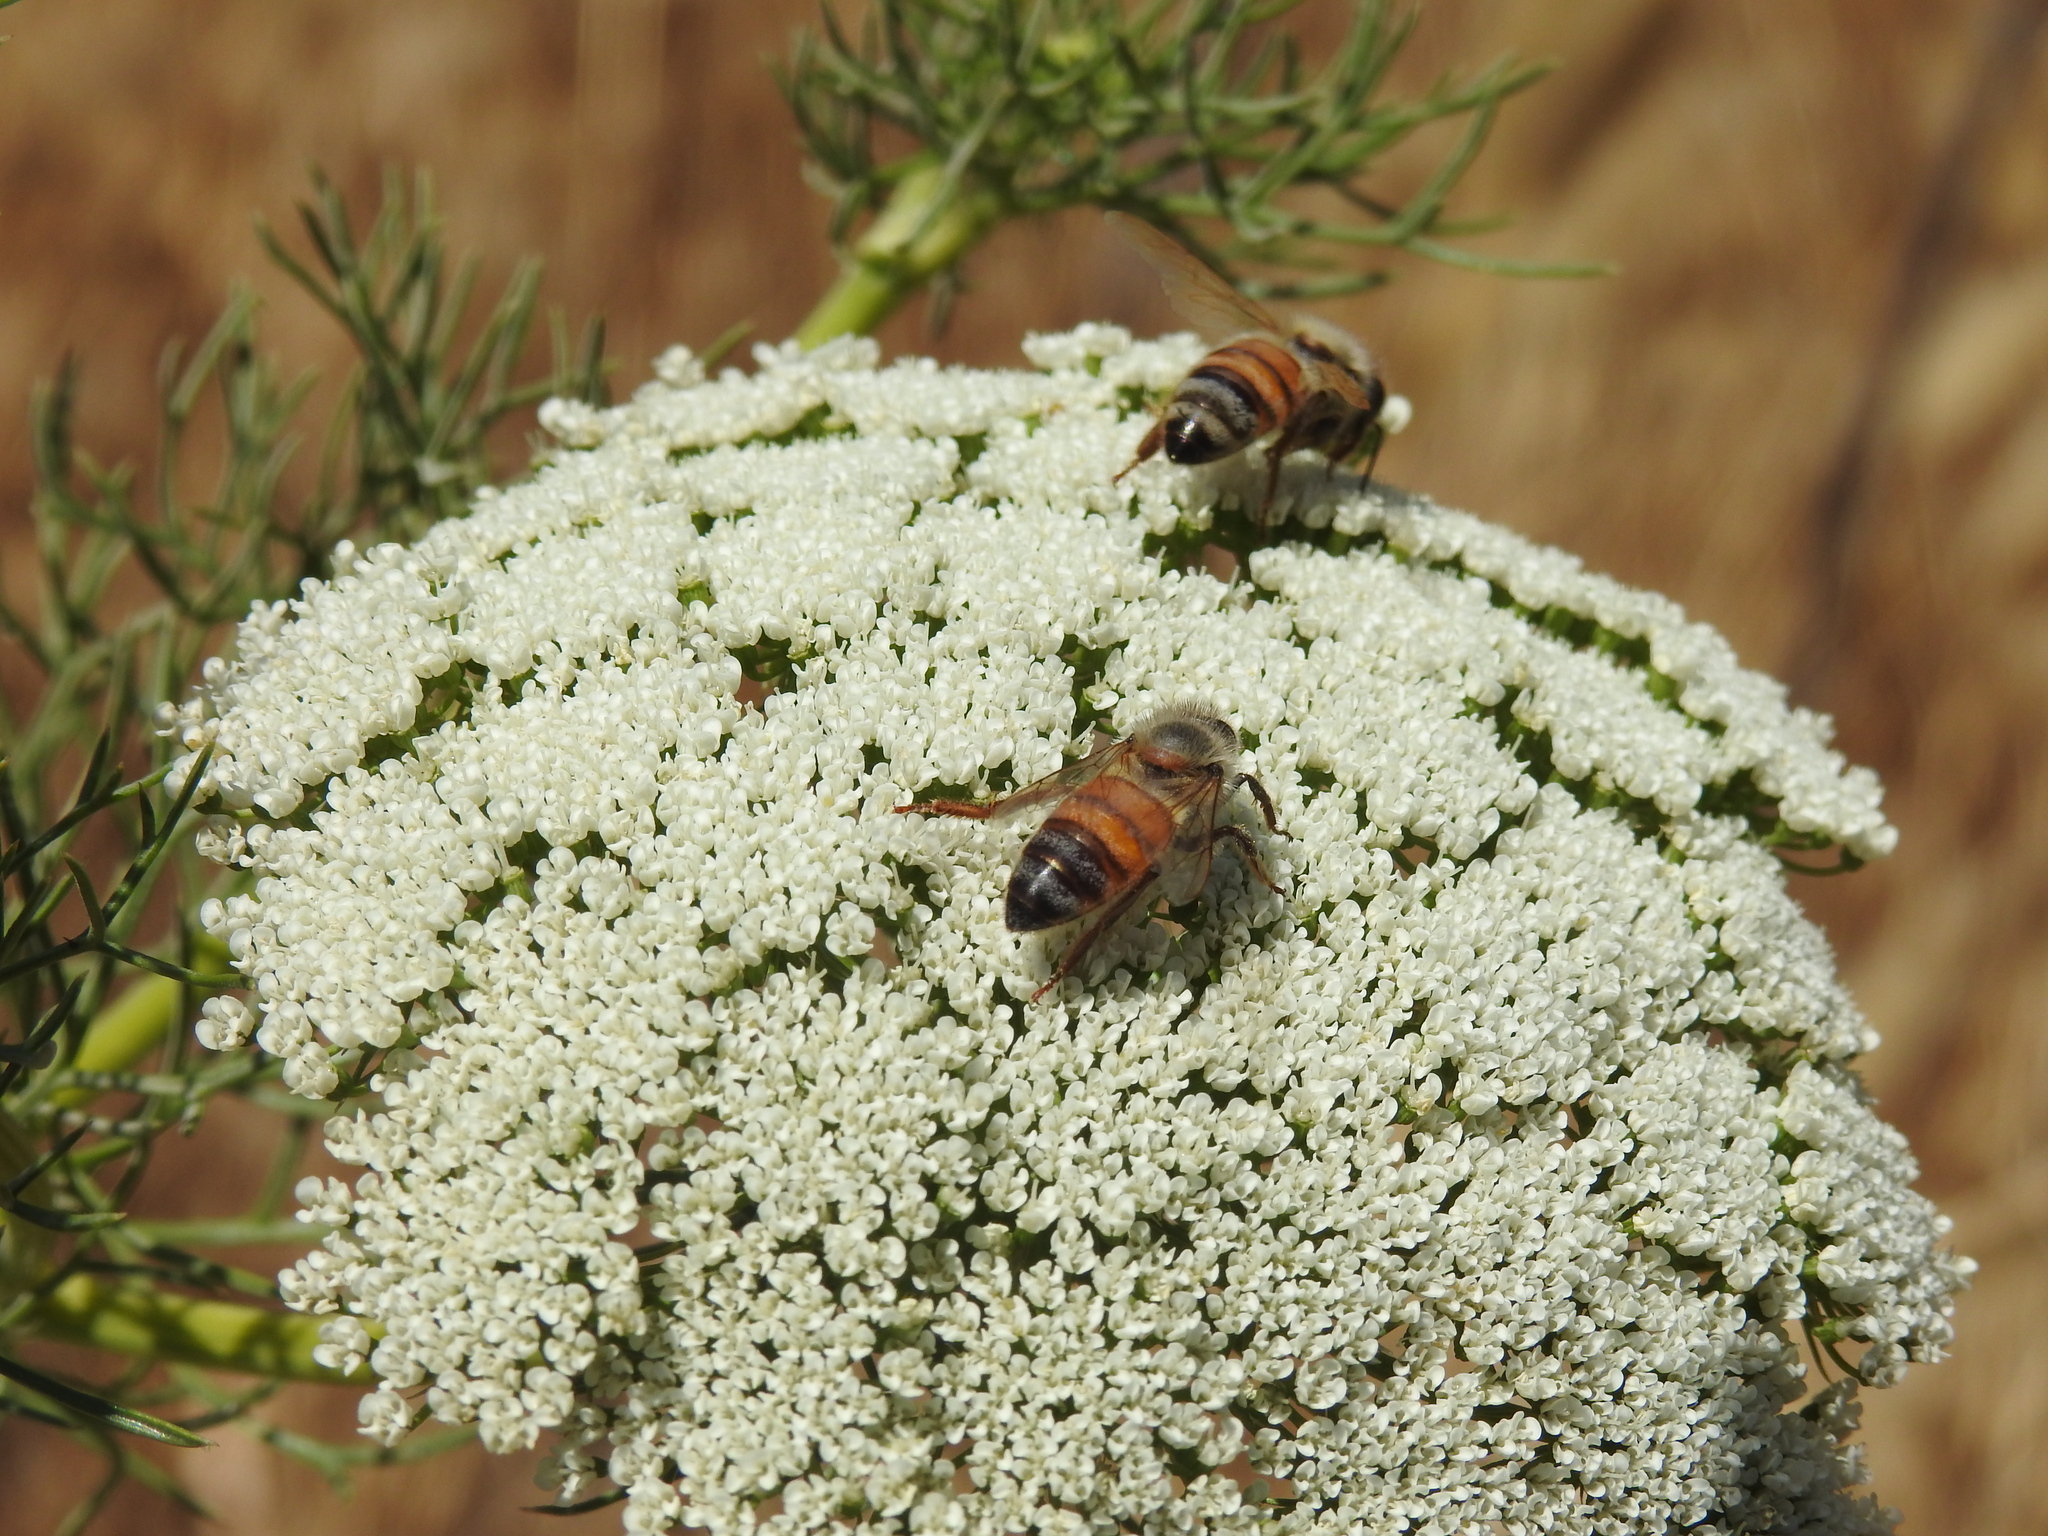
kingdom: Animalia
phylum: Arthropoda
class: Insecta
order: Hymenoptera
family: Apidae
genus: Apis
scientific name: Apis mellifera
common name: Honey bee
